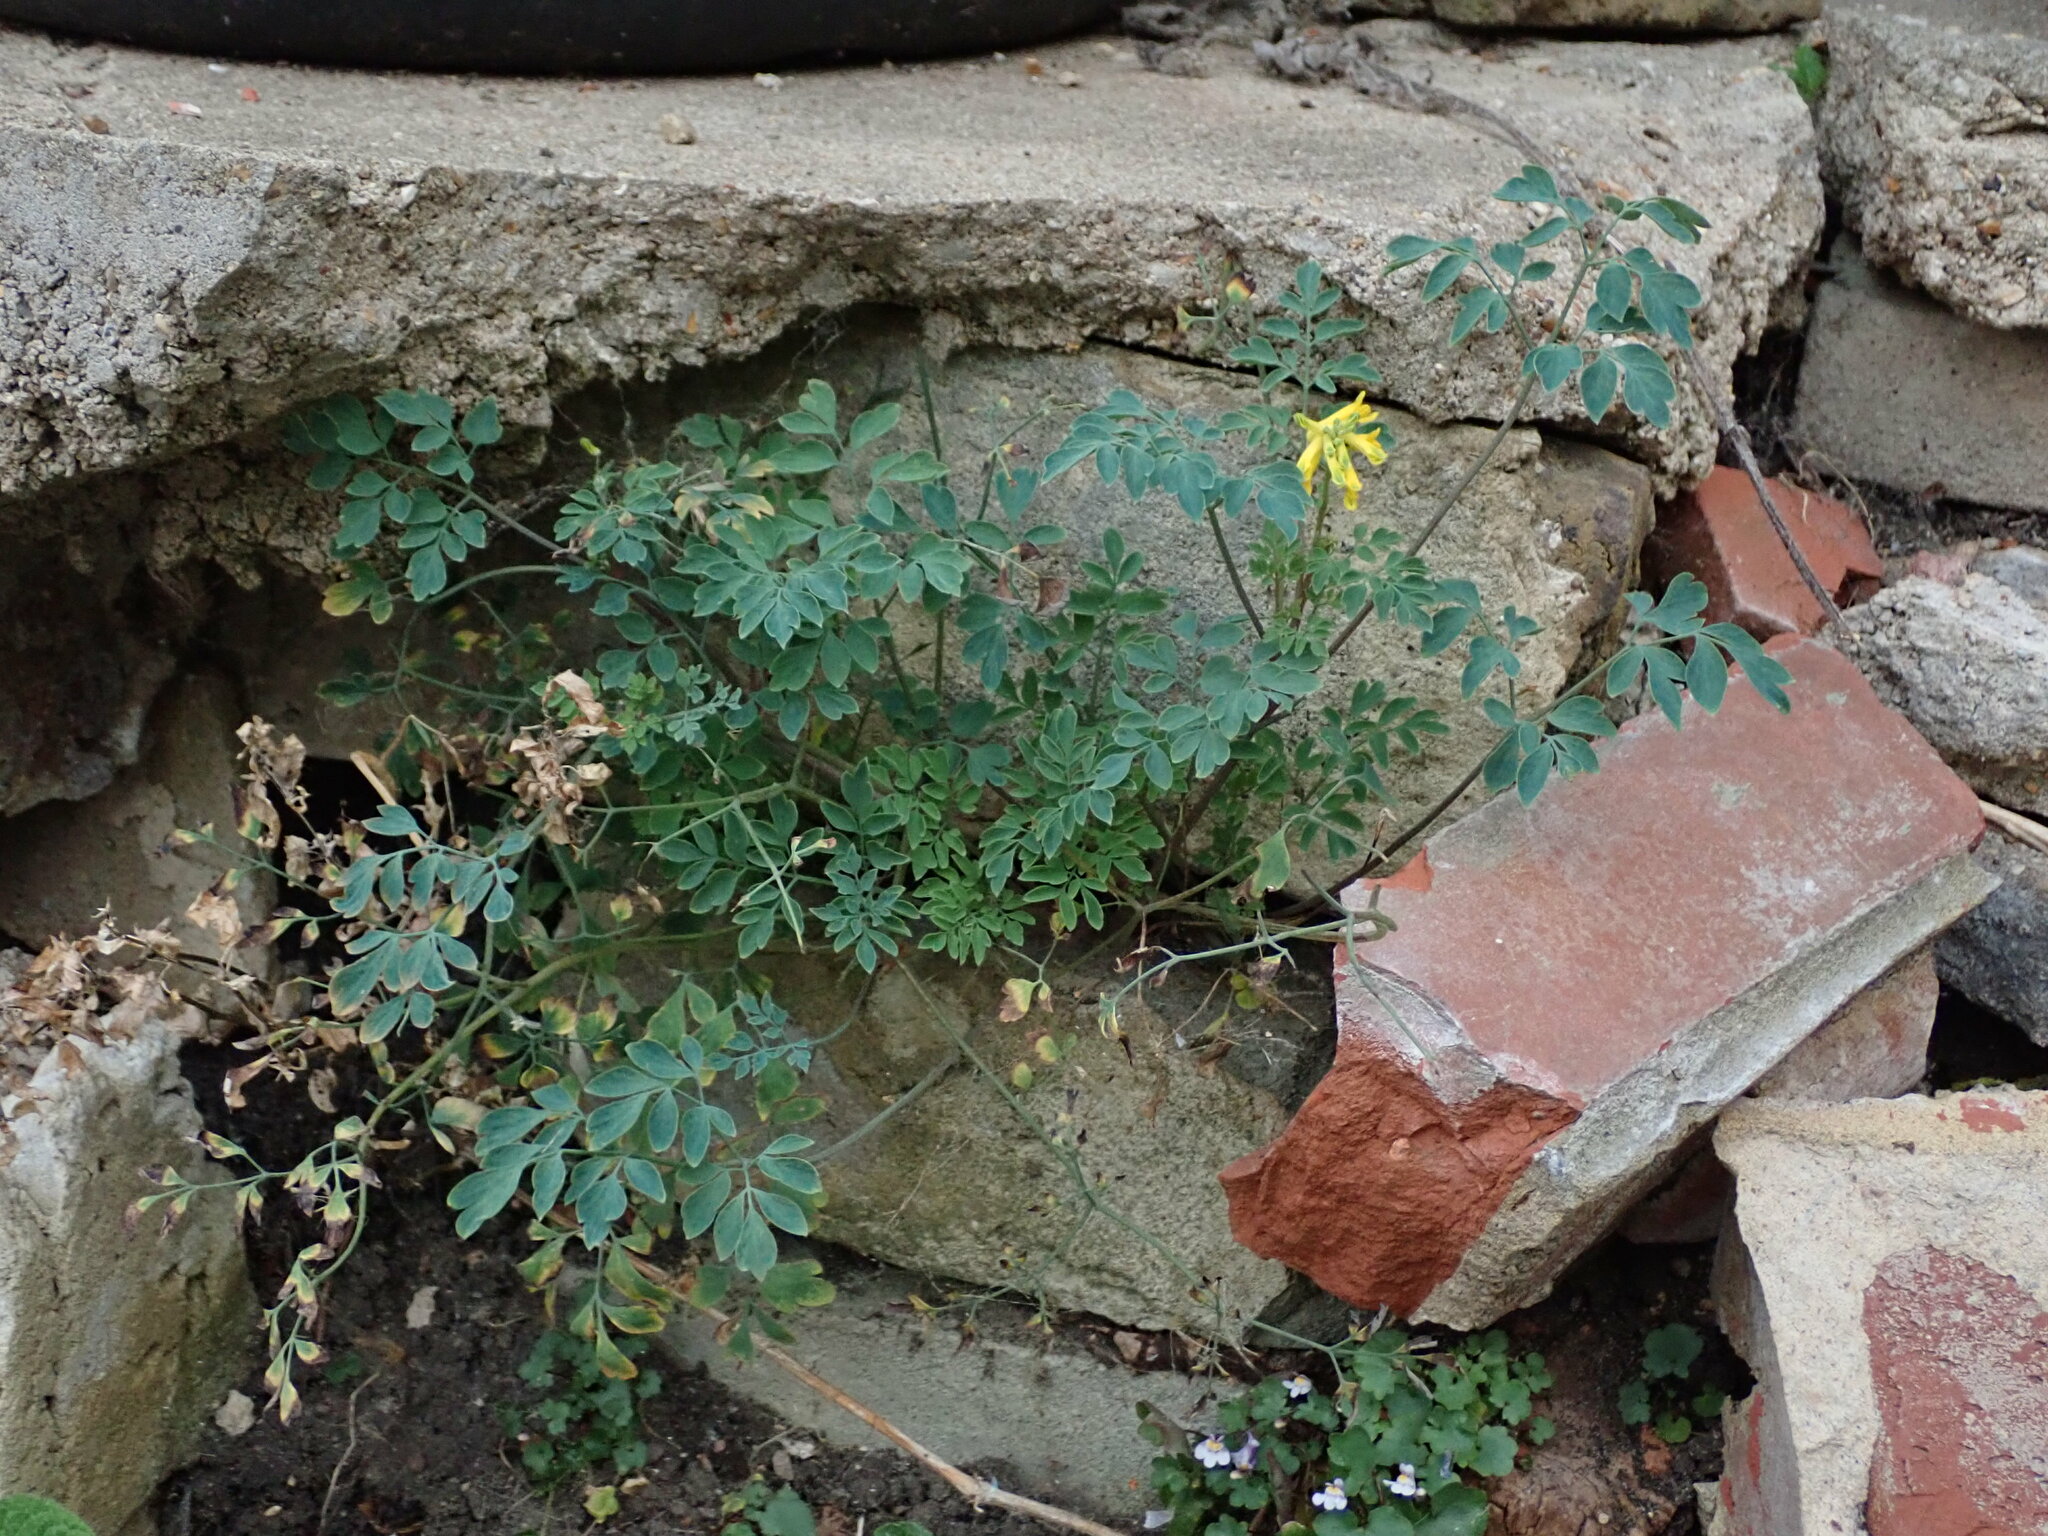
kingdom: Plantae
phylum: Tracheophyta
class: Magnoliopsida
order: Ranunculales
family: Papaveraceae
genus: Pseudofumaria
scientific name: Pseudofumaria lutea
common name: Yellow corydalis
